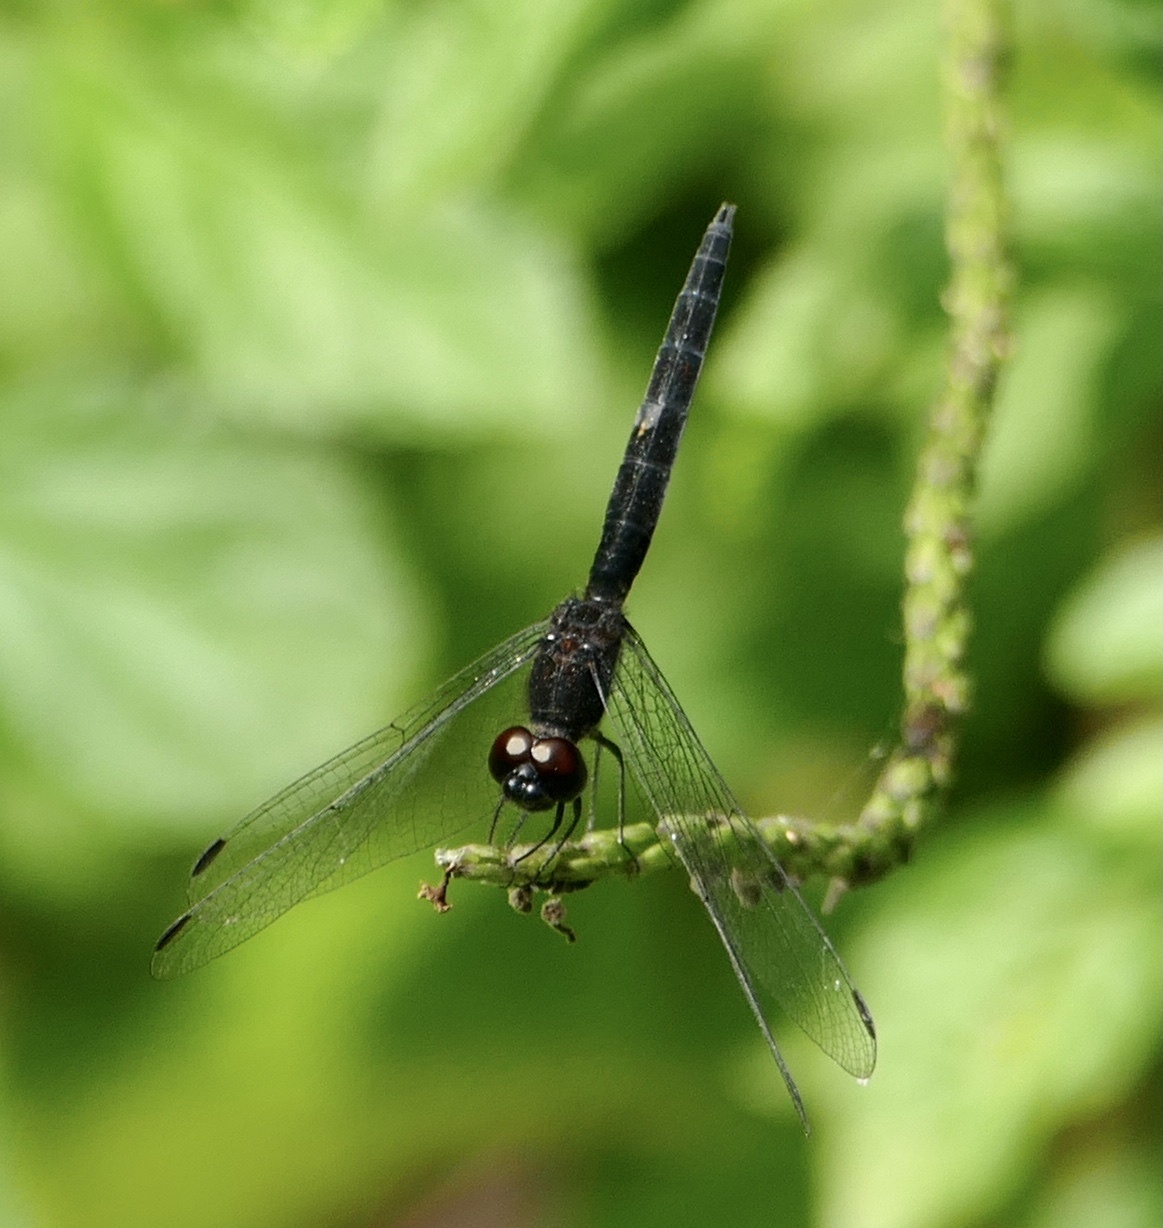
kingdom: Animalia
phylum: Arthropoda
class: Insecta
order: Odonata
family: Libellulidae
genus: Trithemis
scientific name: Trithemis dichroa
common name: Black dropwing
